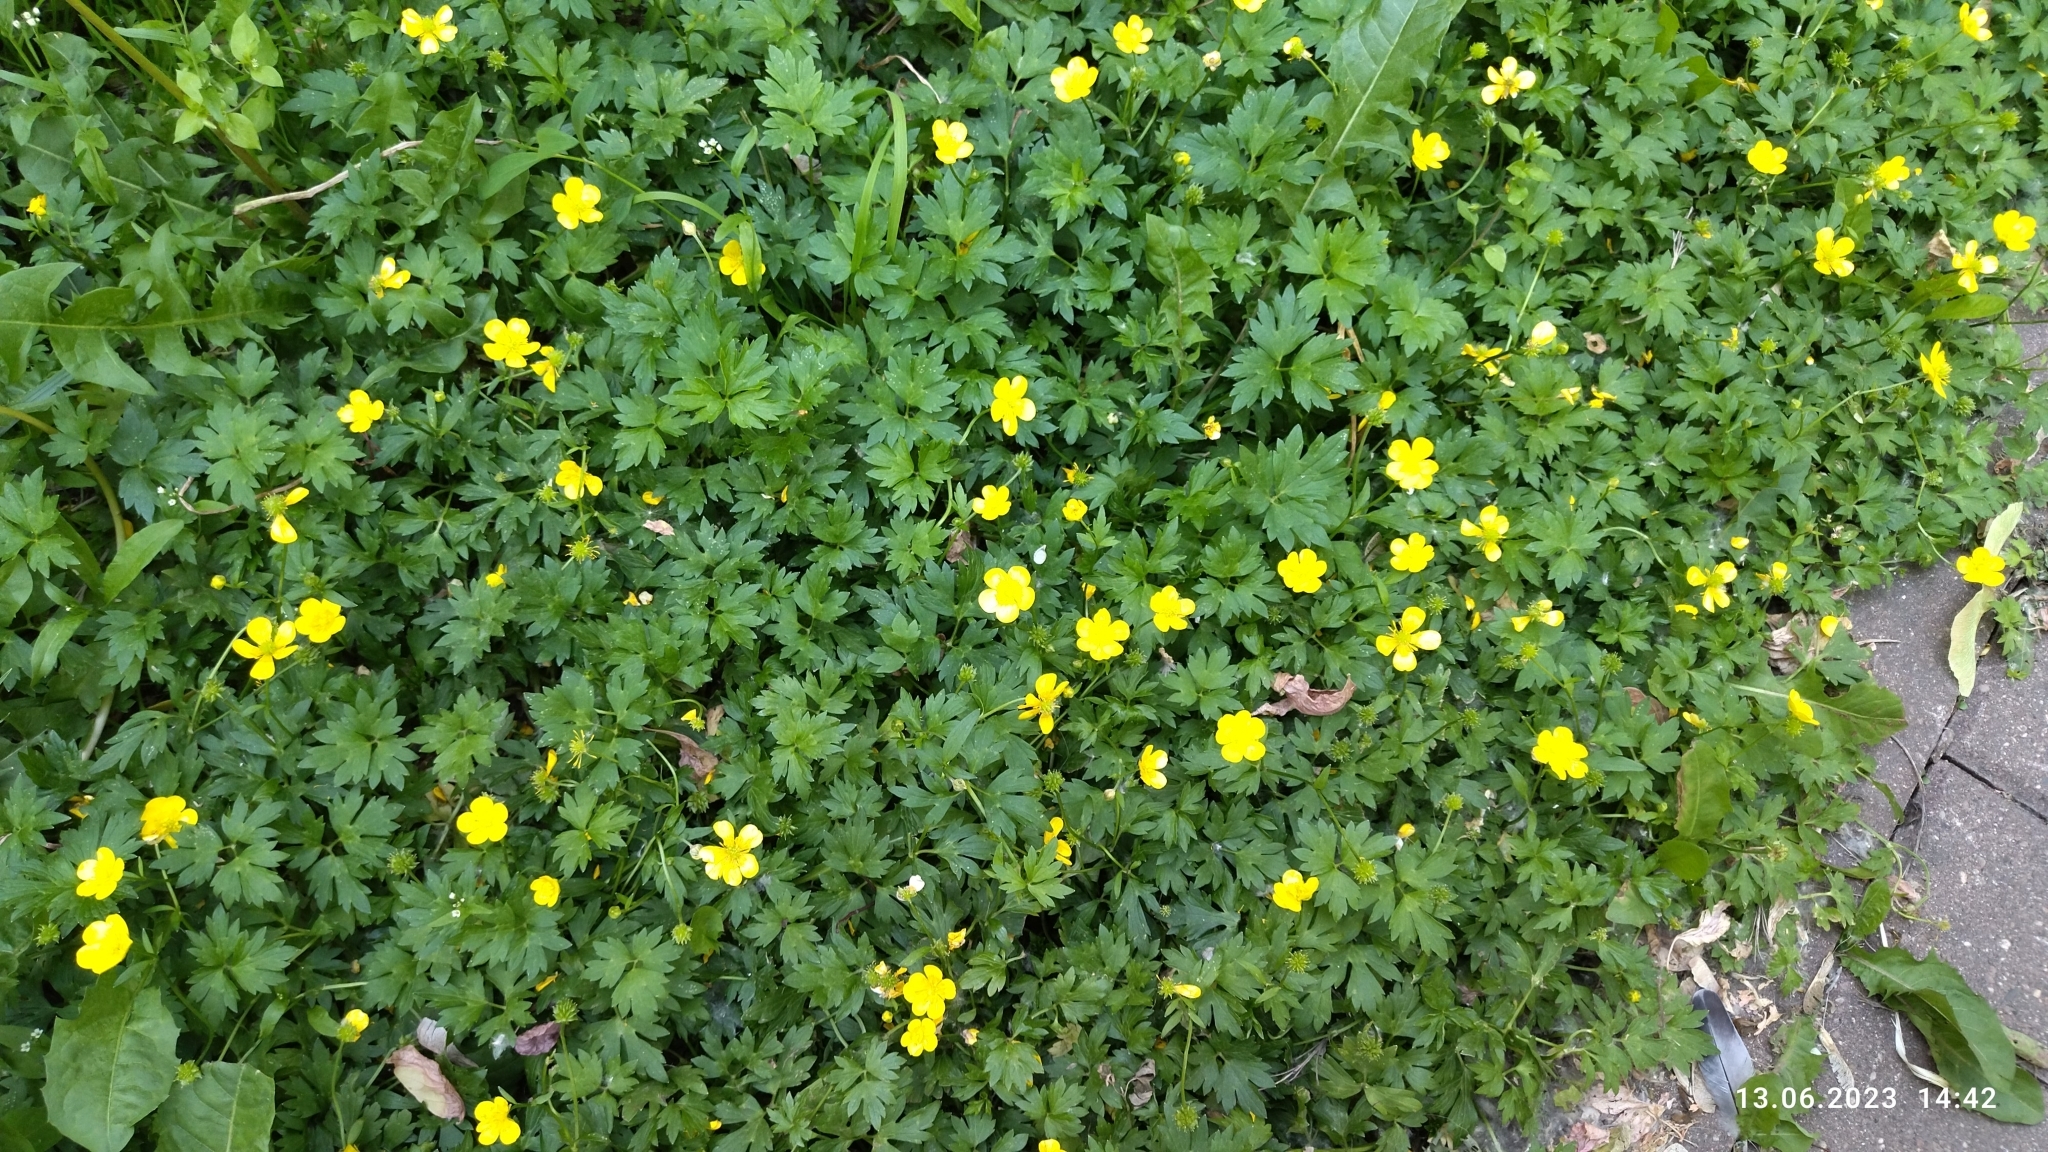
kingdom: Plantae
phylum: Tracheophyta
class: Magnoliopsida
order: Ranunculales
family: Ranunculaceae
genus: Ranunculus
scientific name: Ranunculus repens
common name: Creeping buttercup
